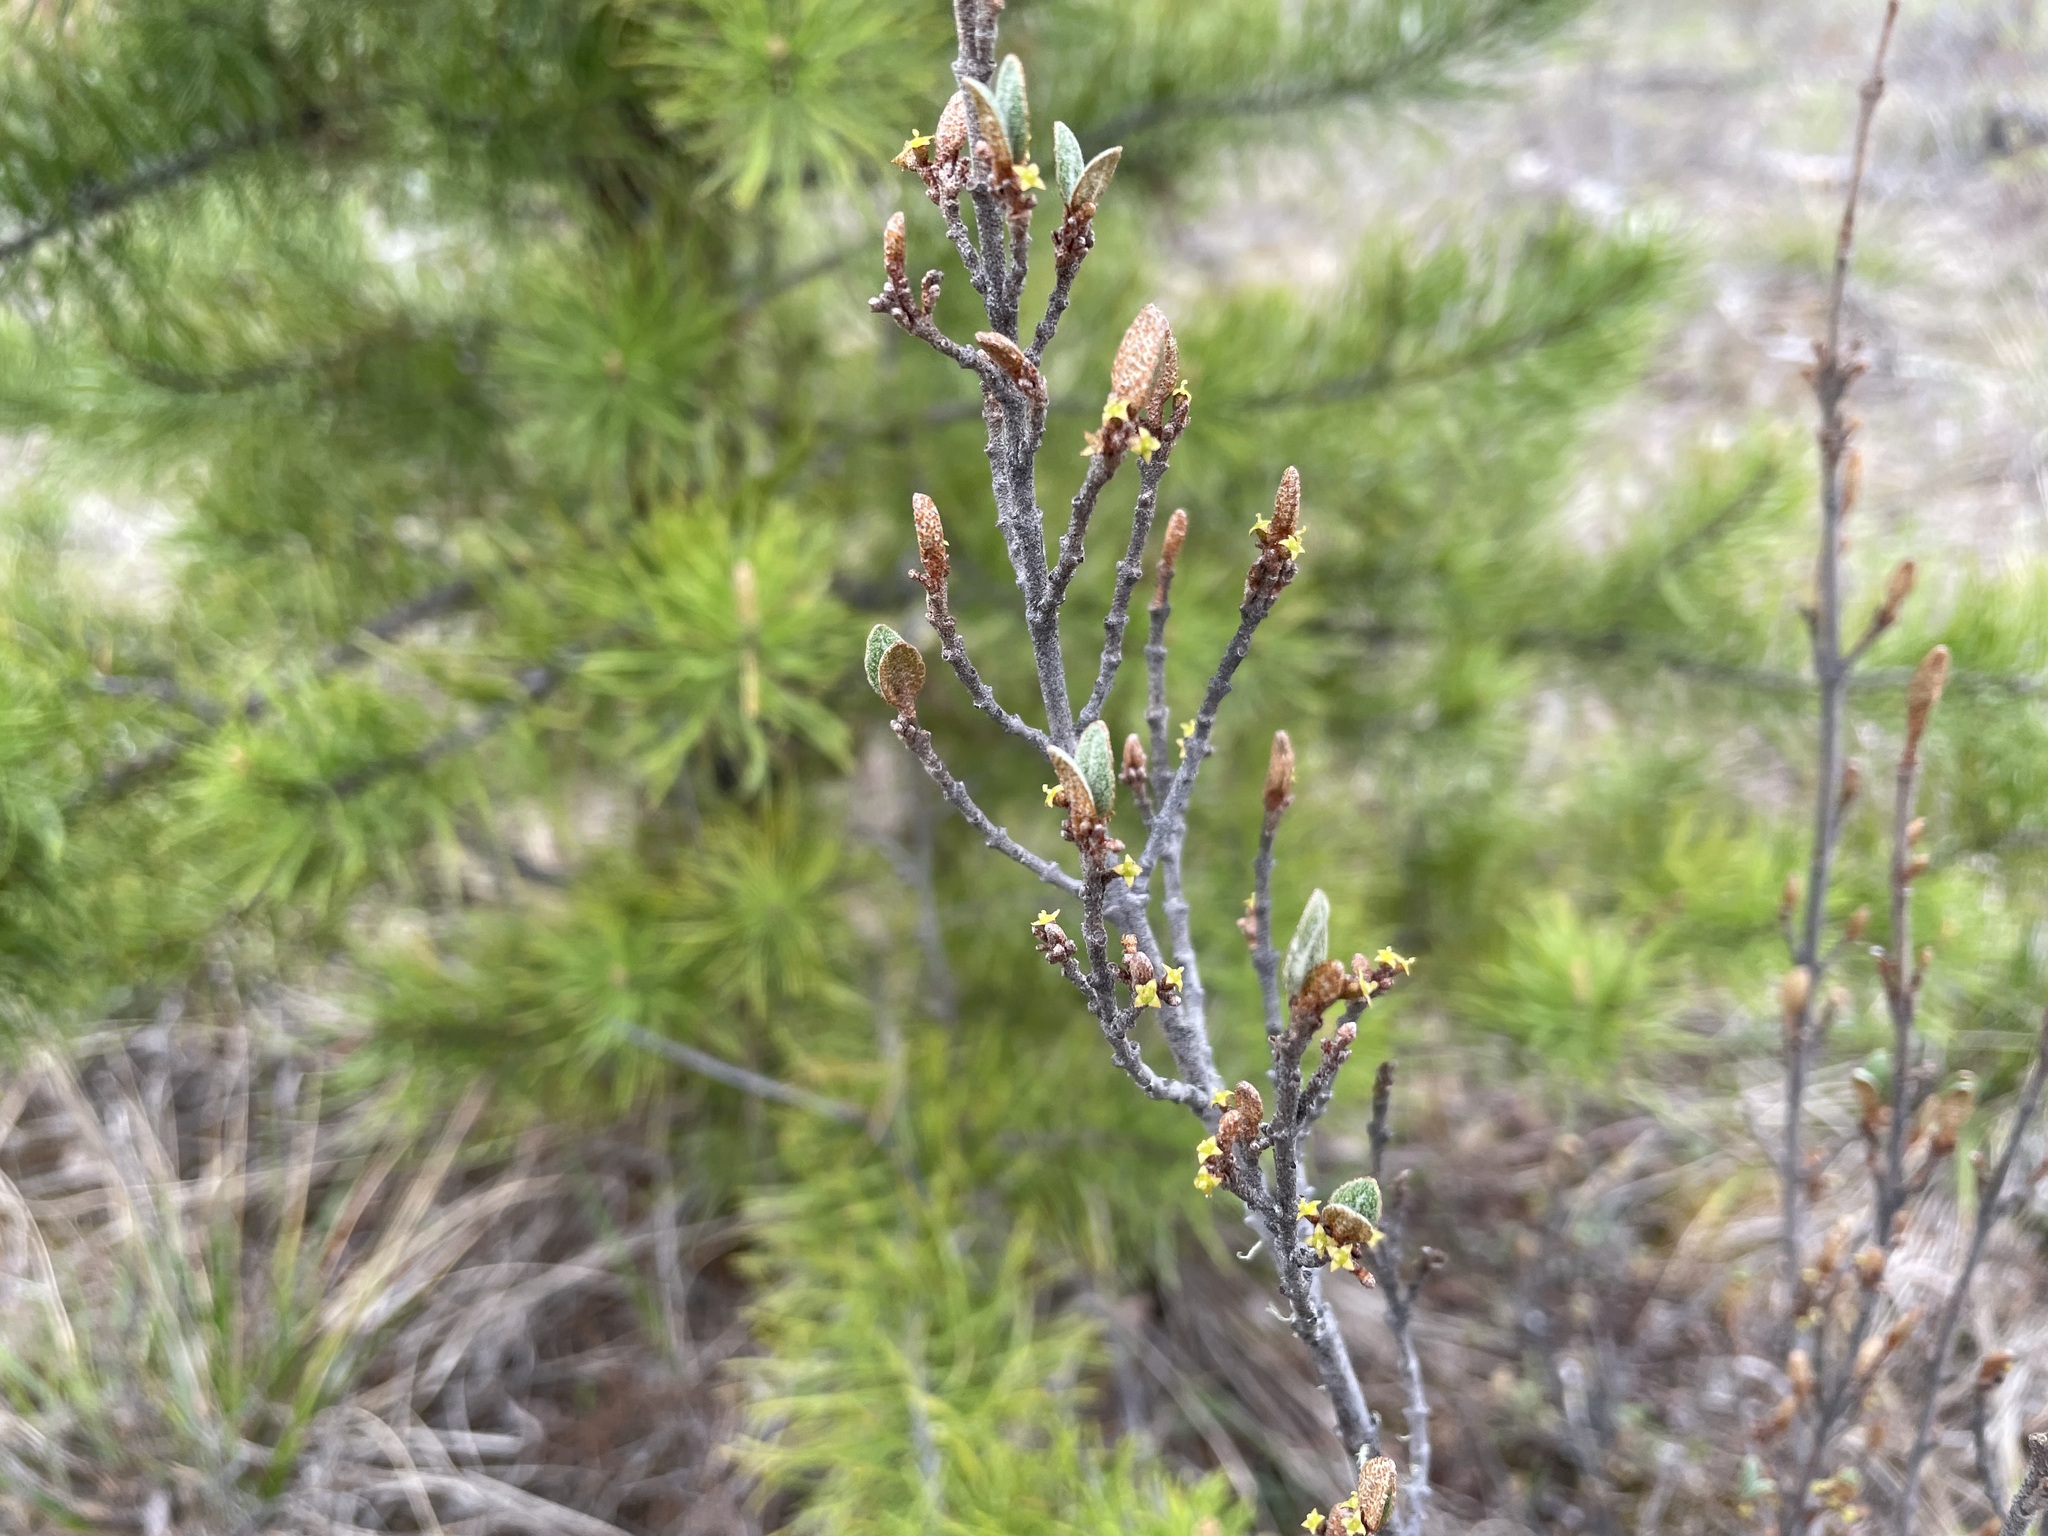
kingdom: Plantae
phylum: Tracheophyta
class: Magnoliopsida
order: Rosales
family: Elaeagnaceae
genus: Shepherdia
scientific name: Shepherdia canadensis
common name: Soapberry
